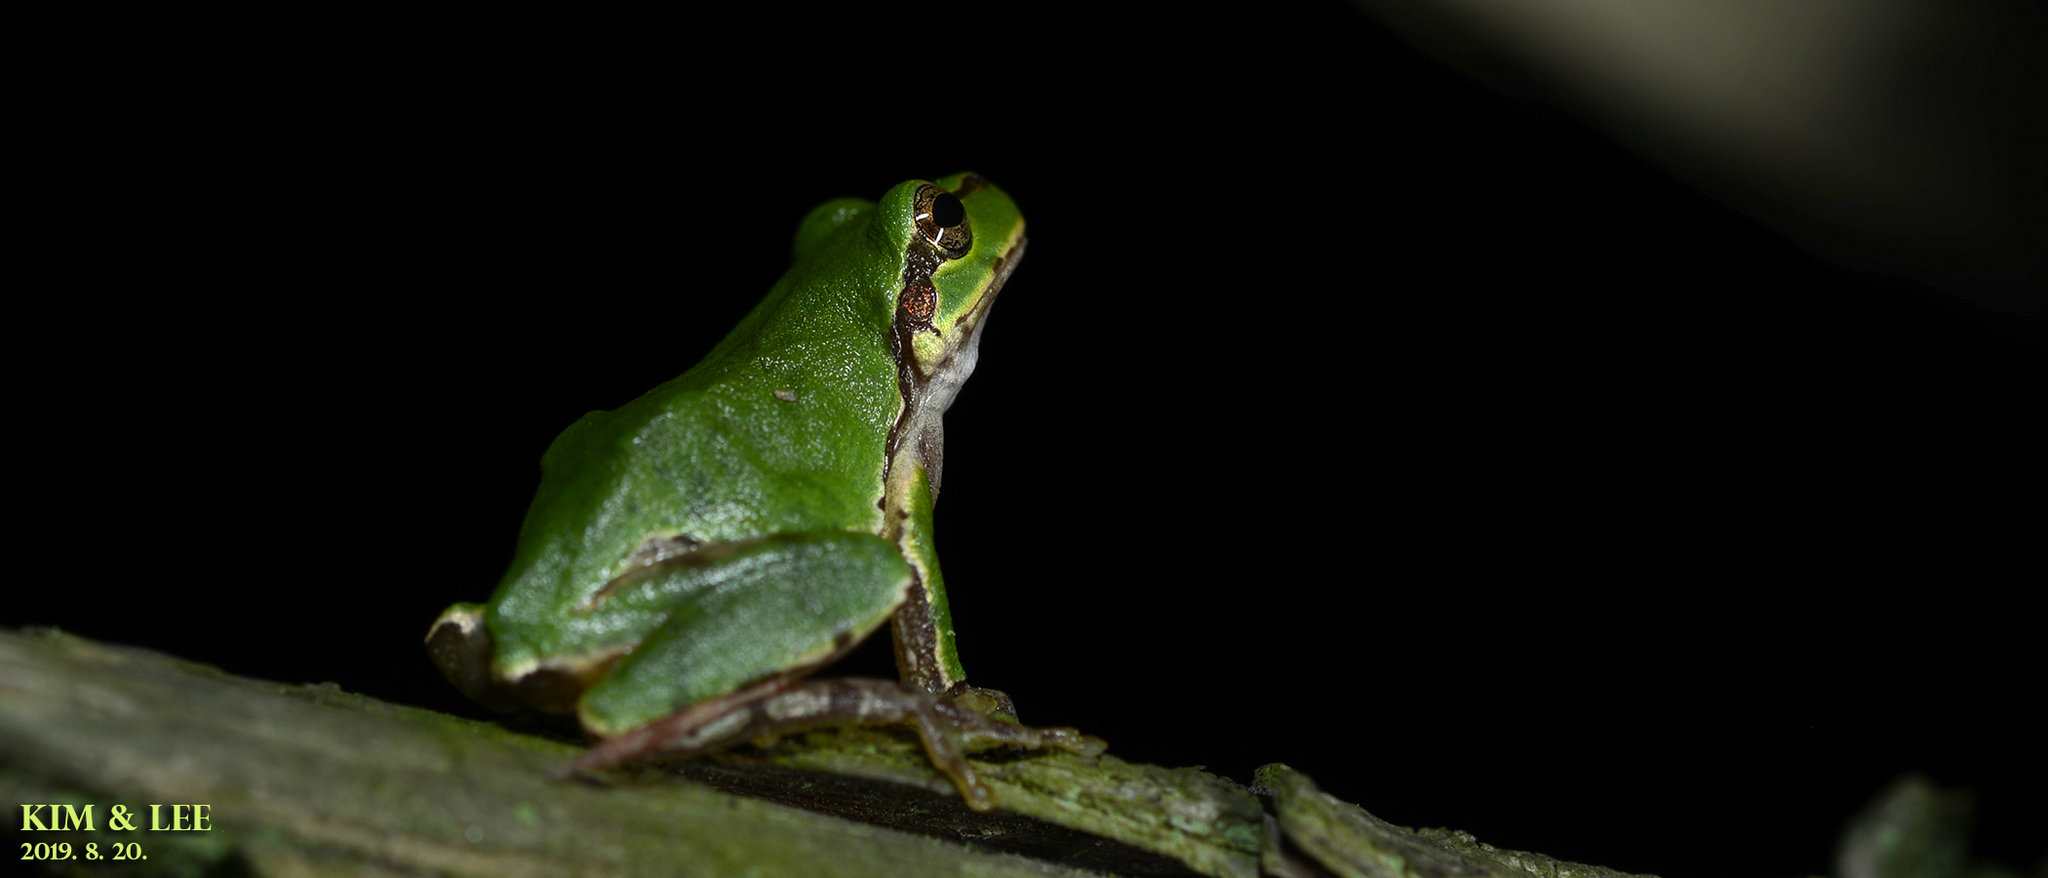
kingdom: Animalia
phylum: Chordata
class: Amphibia
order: Anura
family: Hylidae
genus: Dryophytes
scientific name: Dryophytes japonicus
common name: Japanese treefrog
